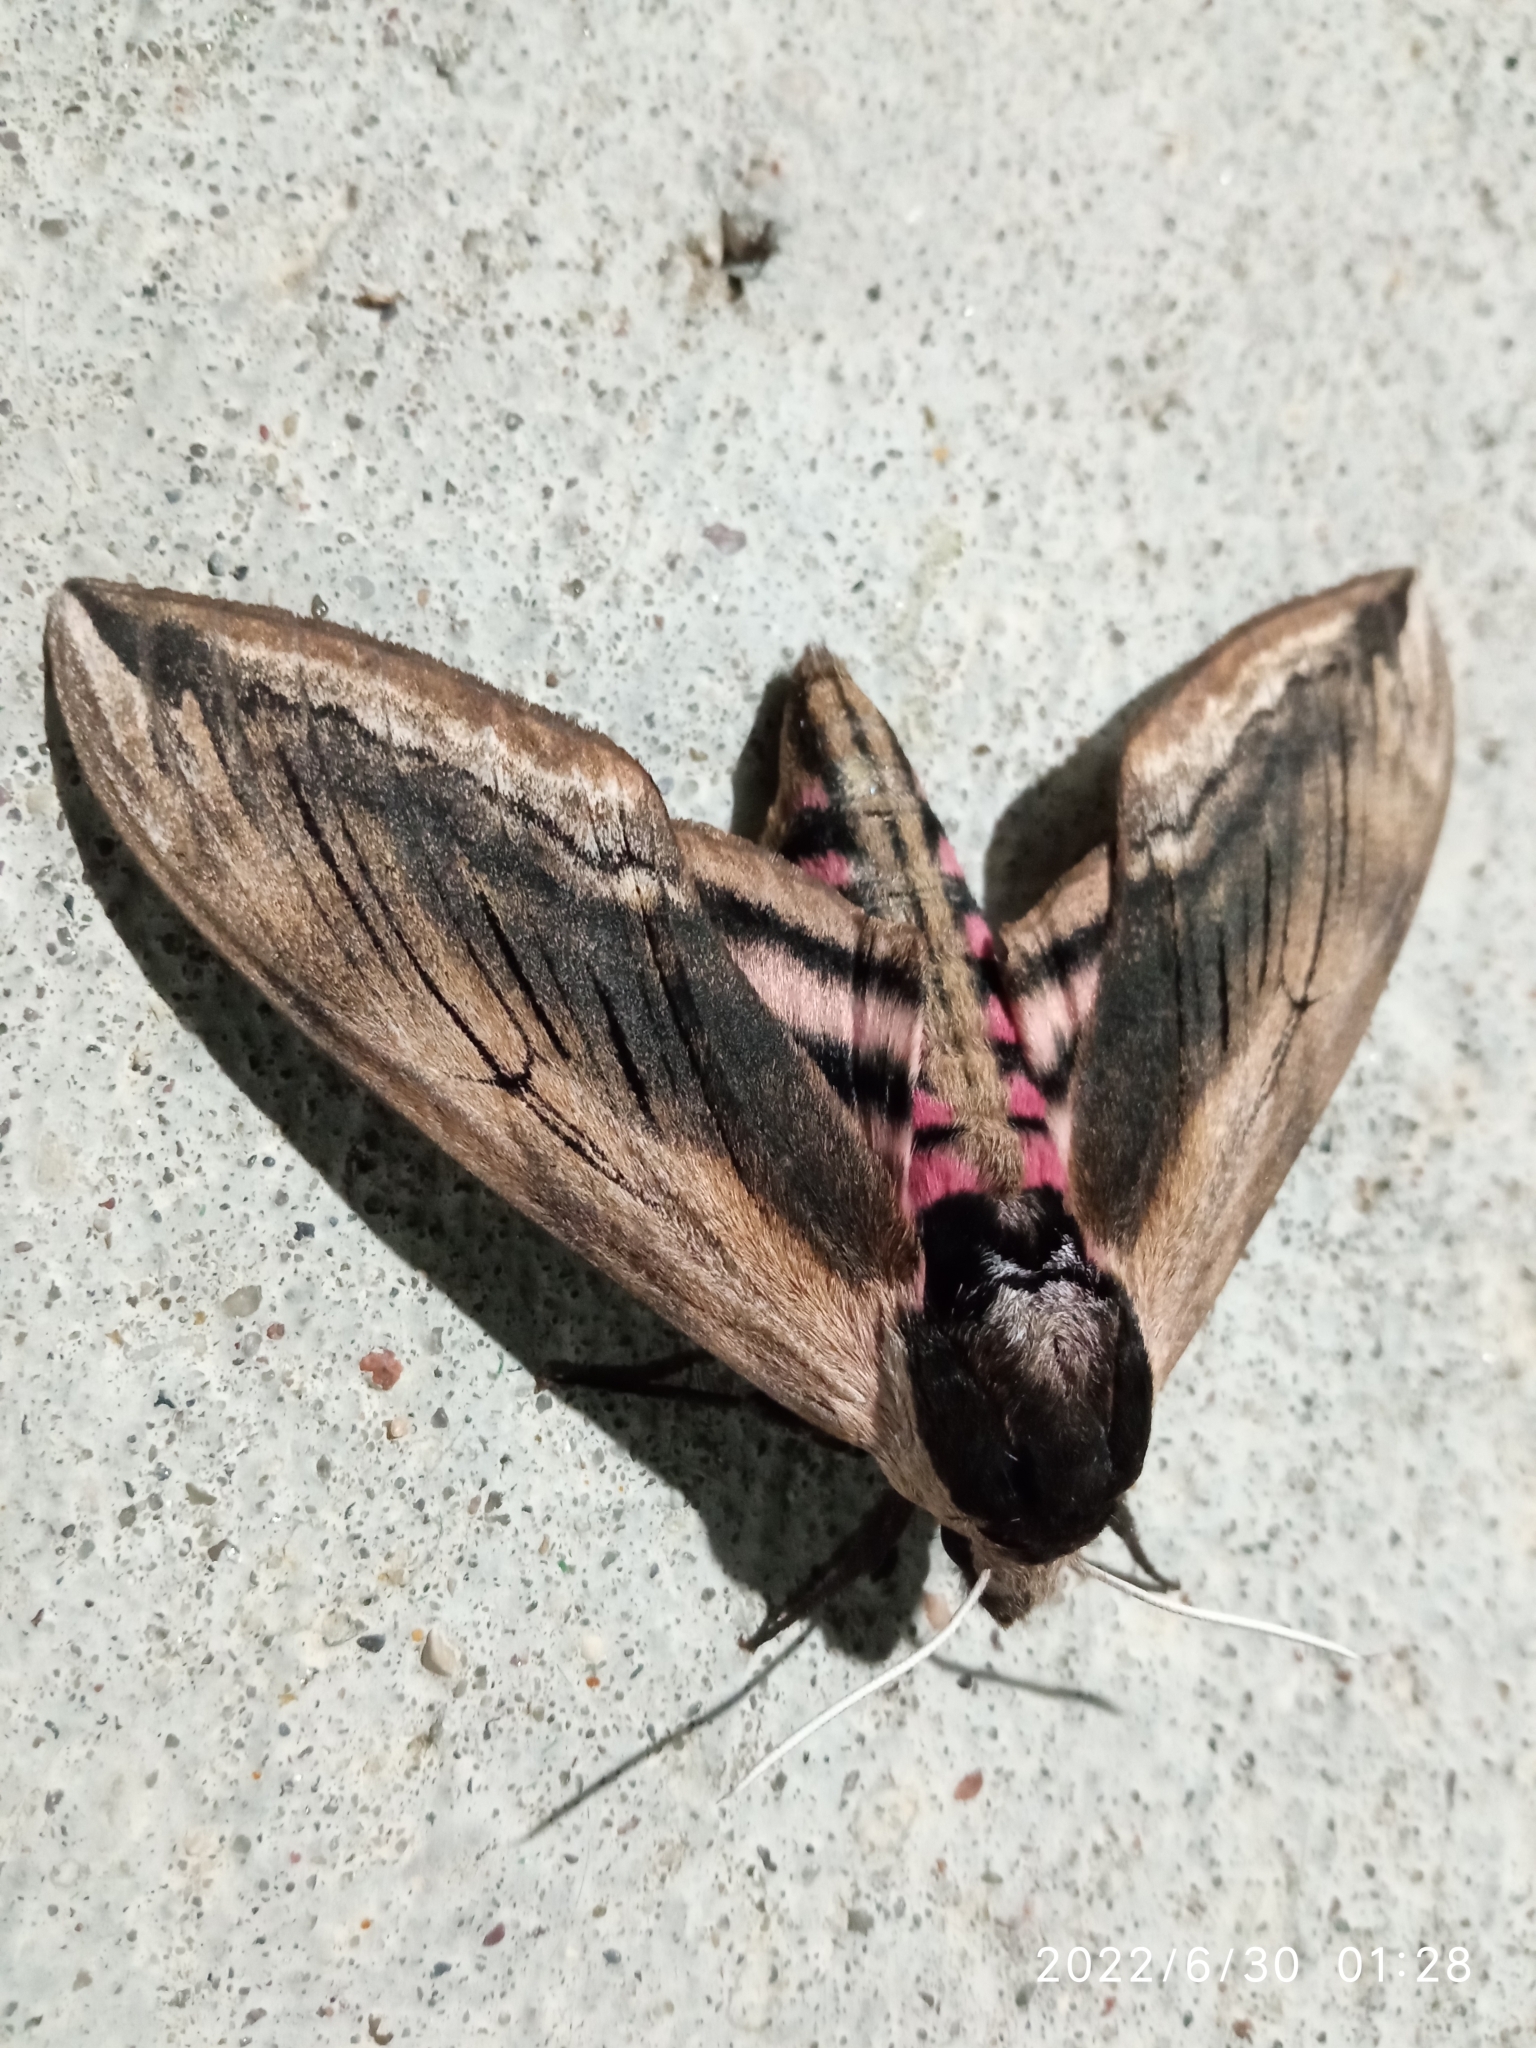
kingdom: Animalia
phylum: Arthropoda
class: Insecta
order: Lepidoptera
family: Sphingidae
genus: Sphinx
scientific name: Sphinx ligustri
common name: Privet hawk-moth
